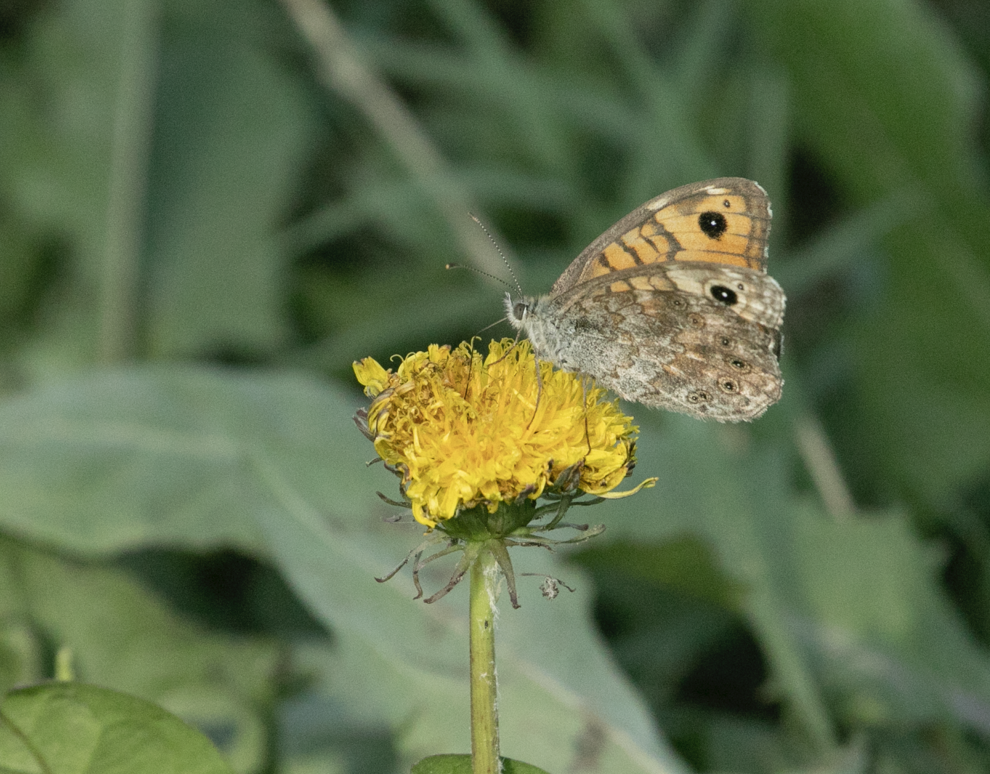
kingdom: Animalia
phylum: Arthropoda
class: Insecta
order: Lepidoptera
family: Nymphalidae
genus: Pararge
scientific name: Pararge Lasiommata megera
